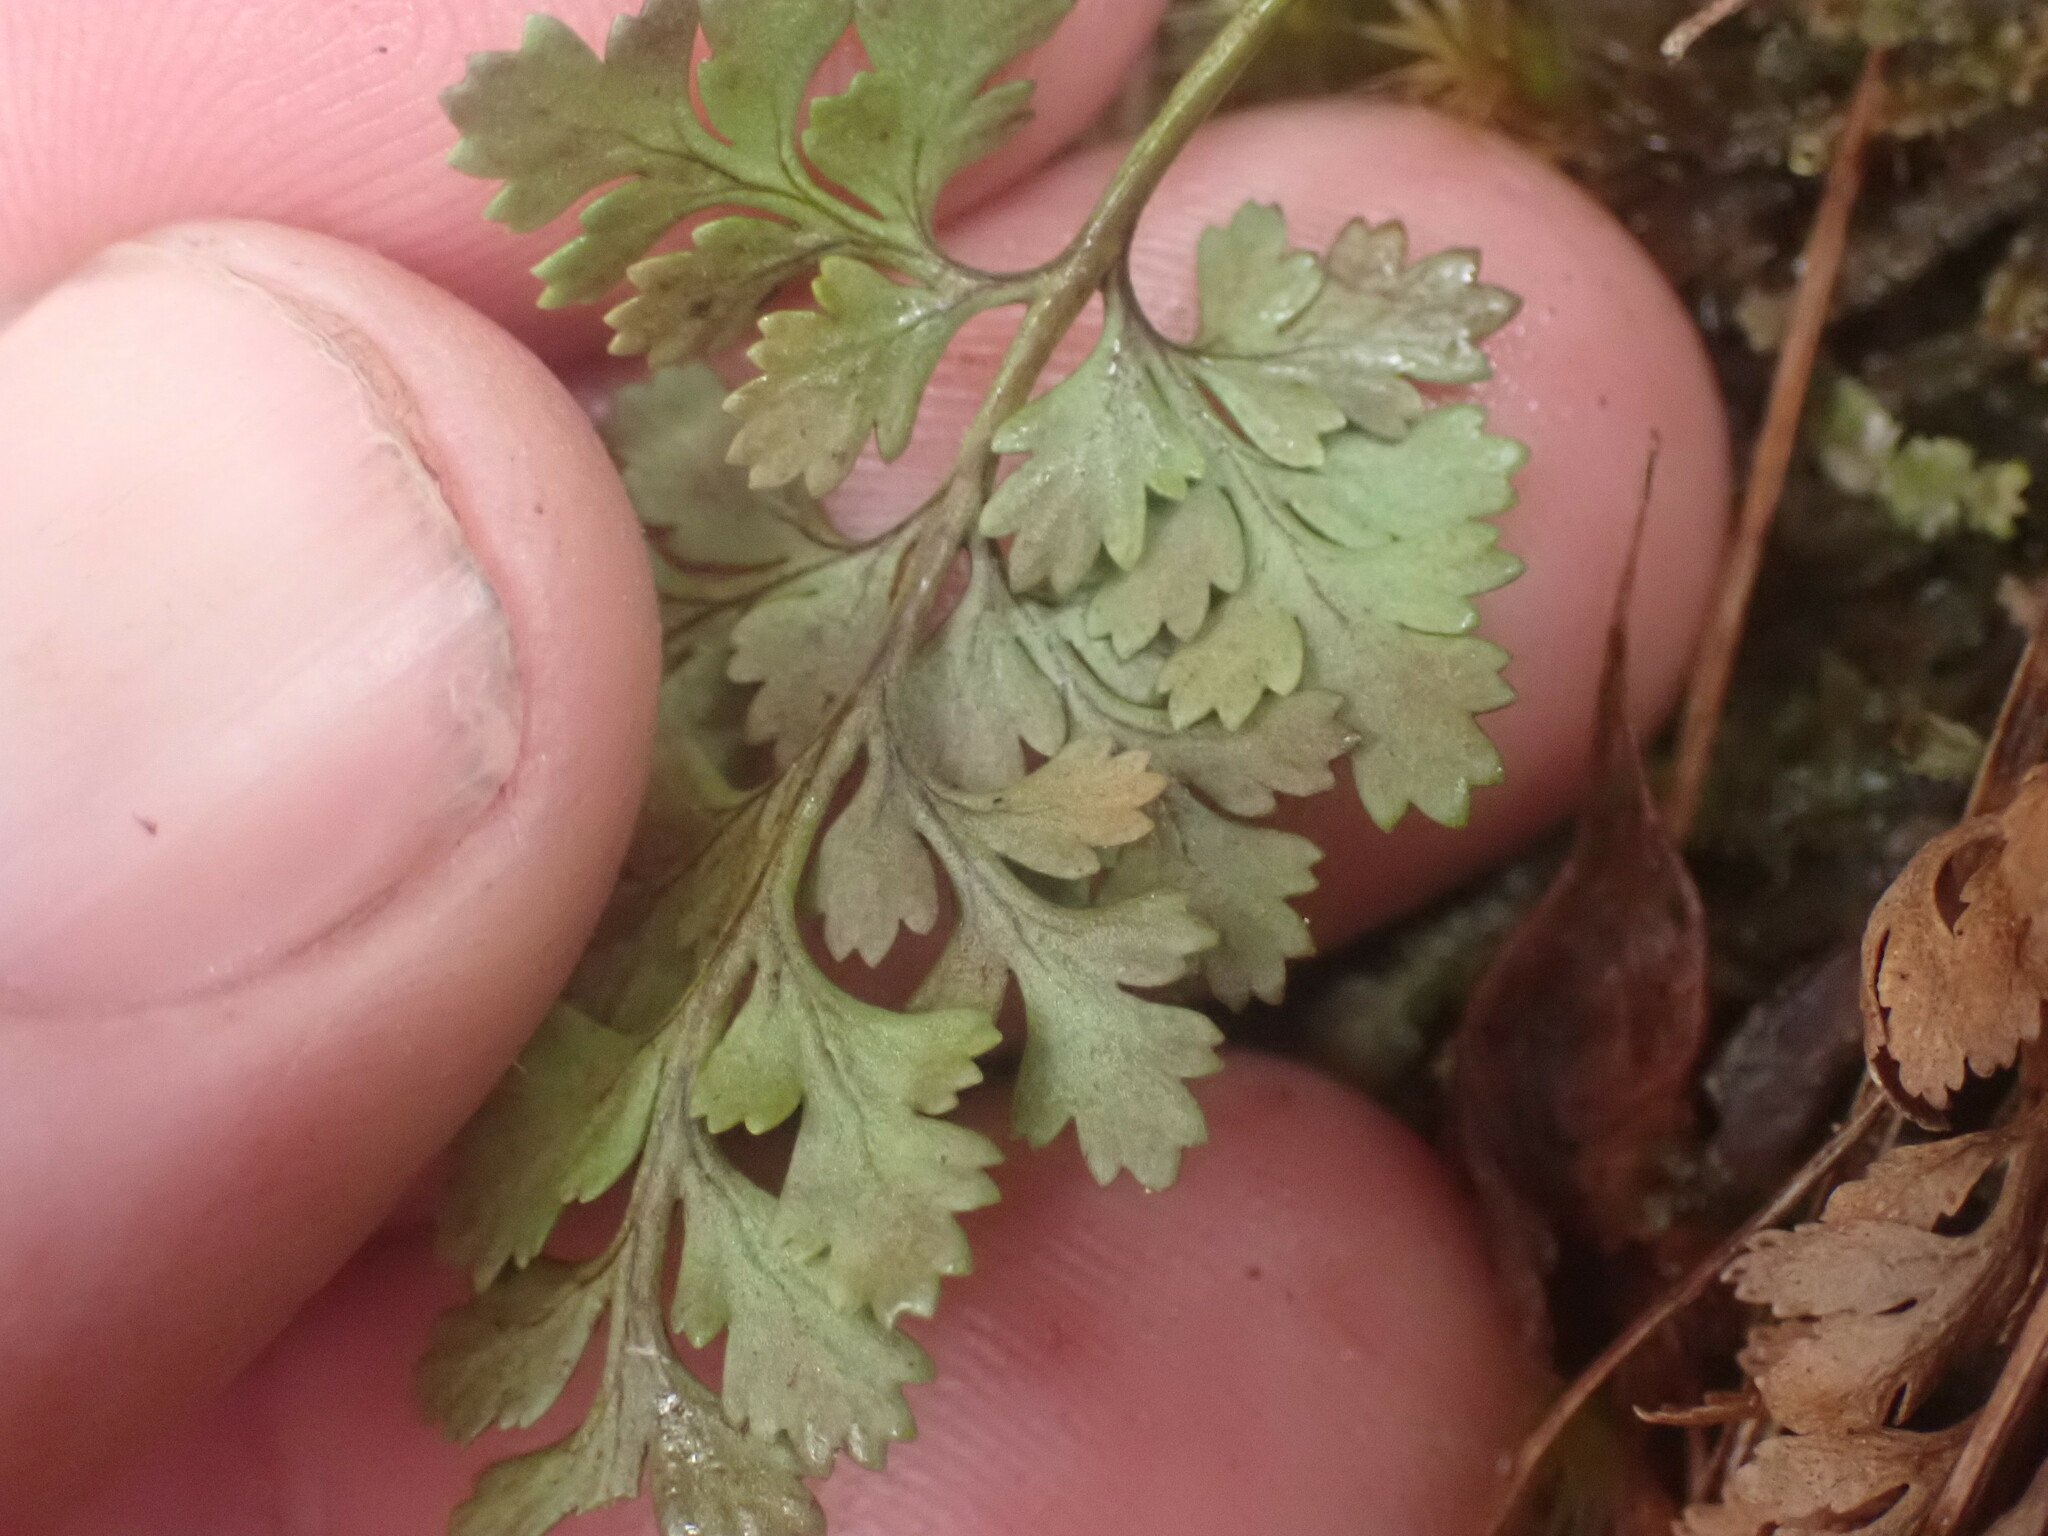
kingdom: Plantae
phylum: Tracheophyta
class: Polypodiopsida
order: Polypodiales
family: Pteridaceae
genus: Cryptogramma
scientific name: Cryptogramma acrostichoides
